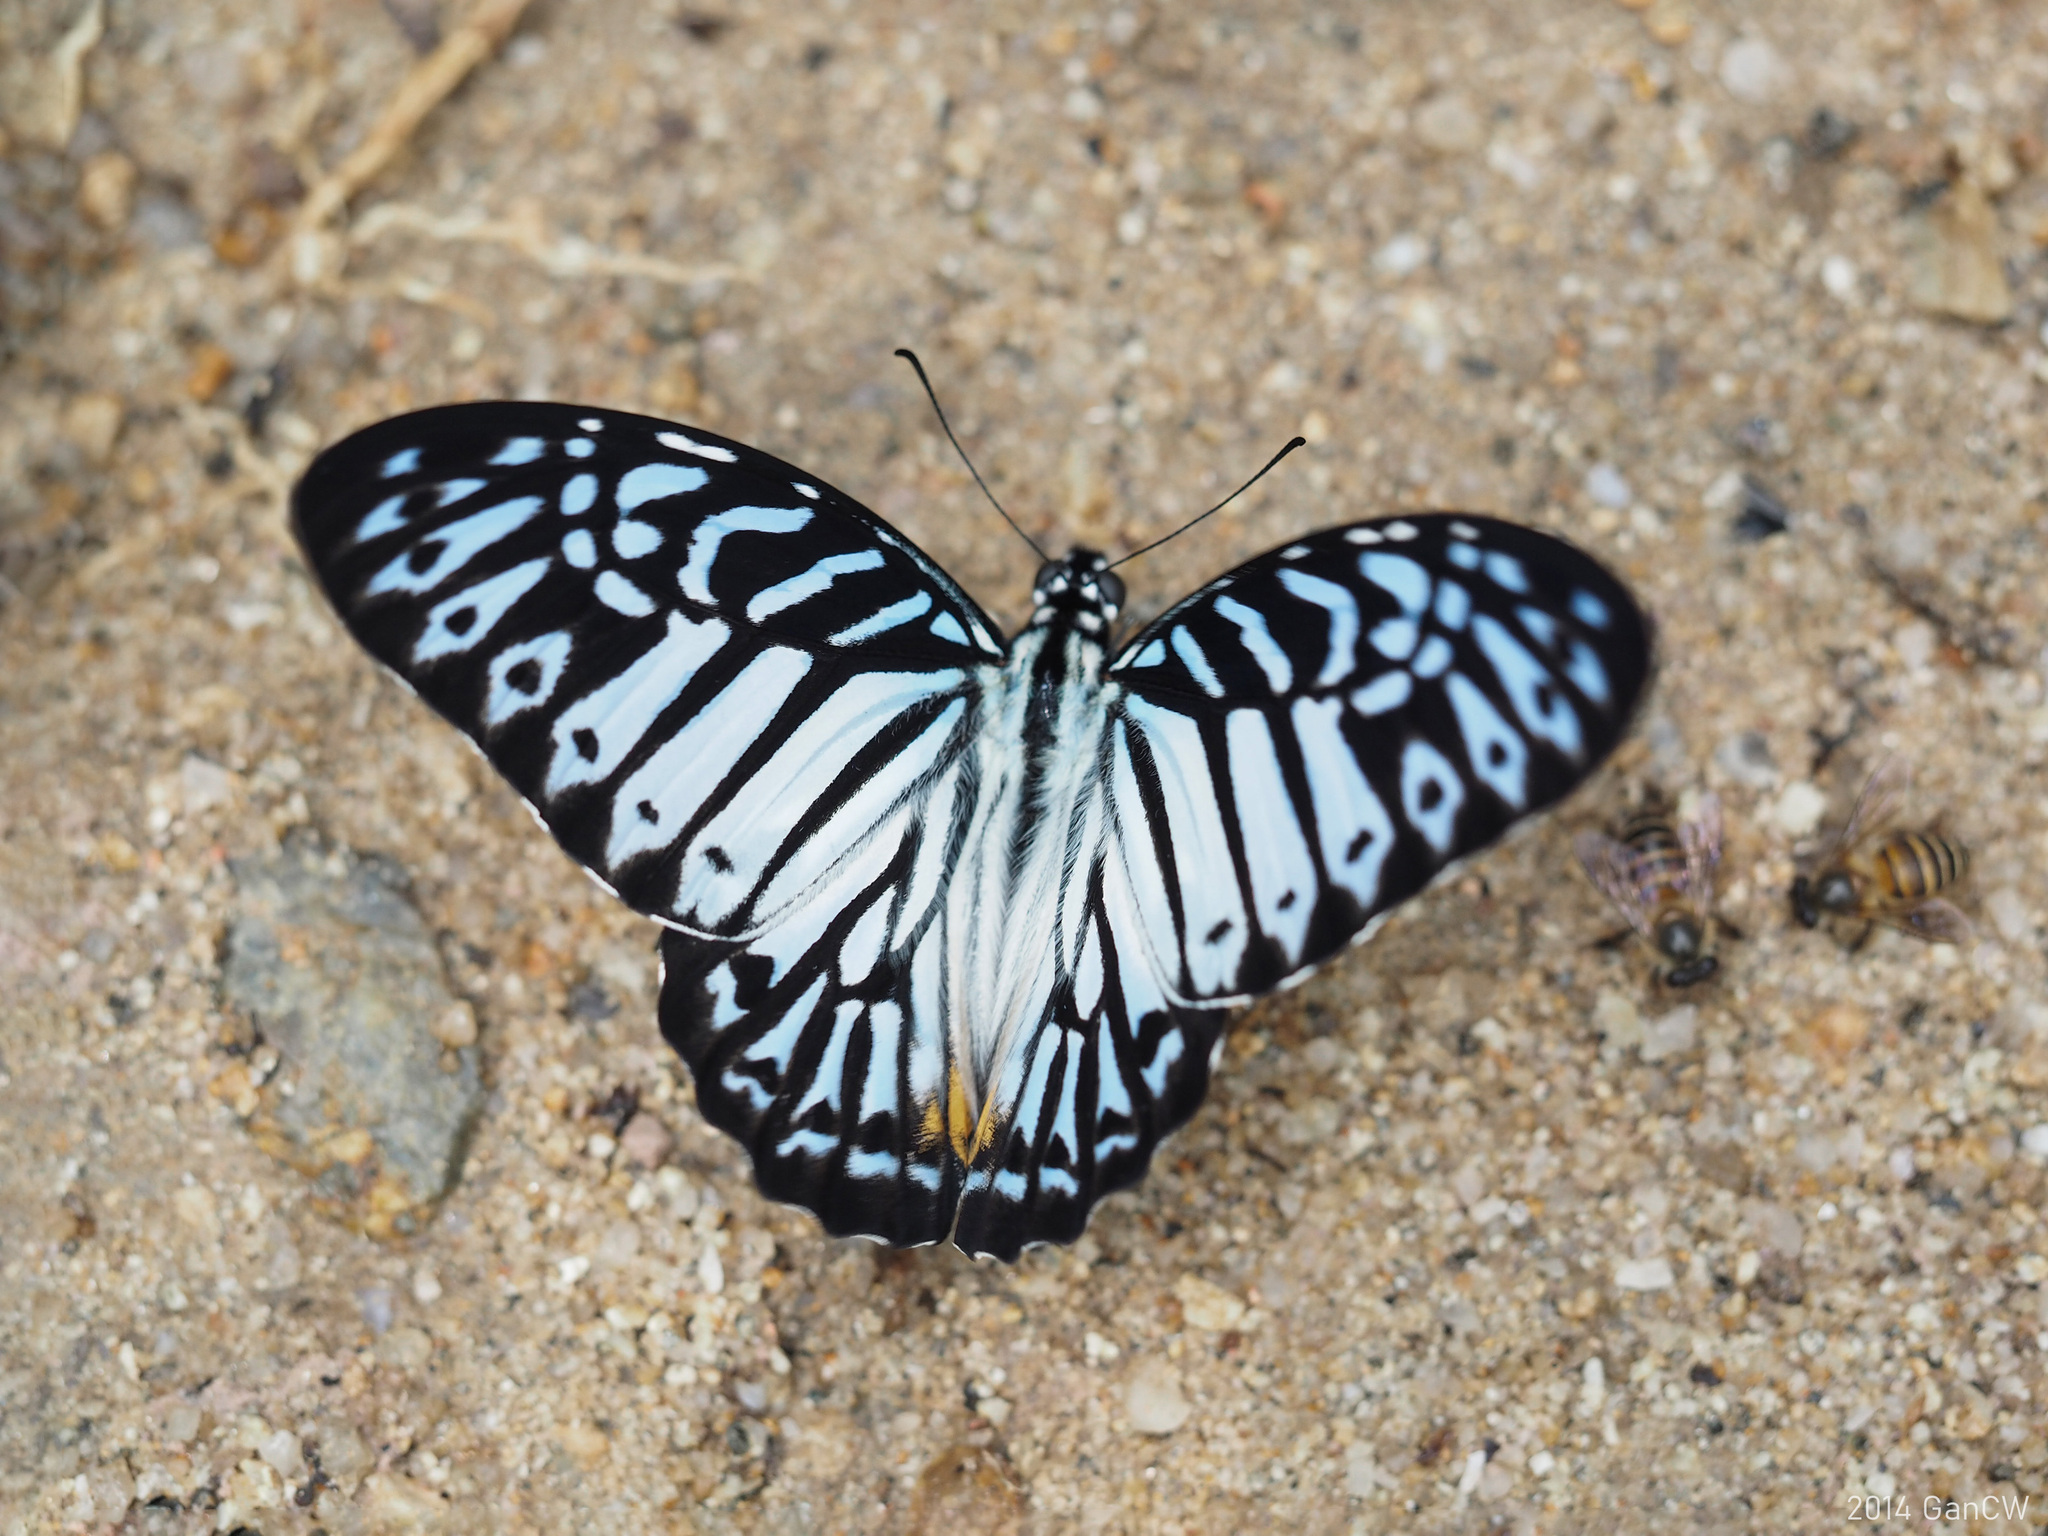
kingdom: Animalia
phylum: Arthropoda
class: Insecta
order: Lepidoptera
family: Papilionidae
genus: Graphium
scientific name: Graphium delesserti
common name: Malayan zebra
